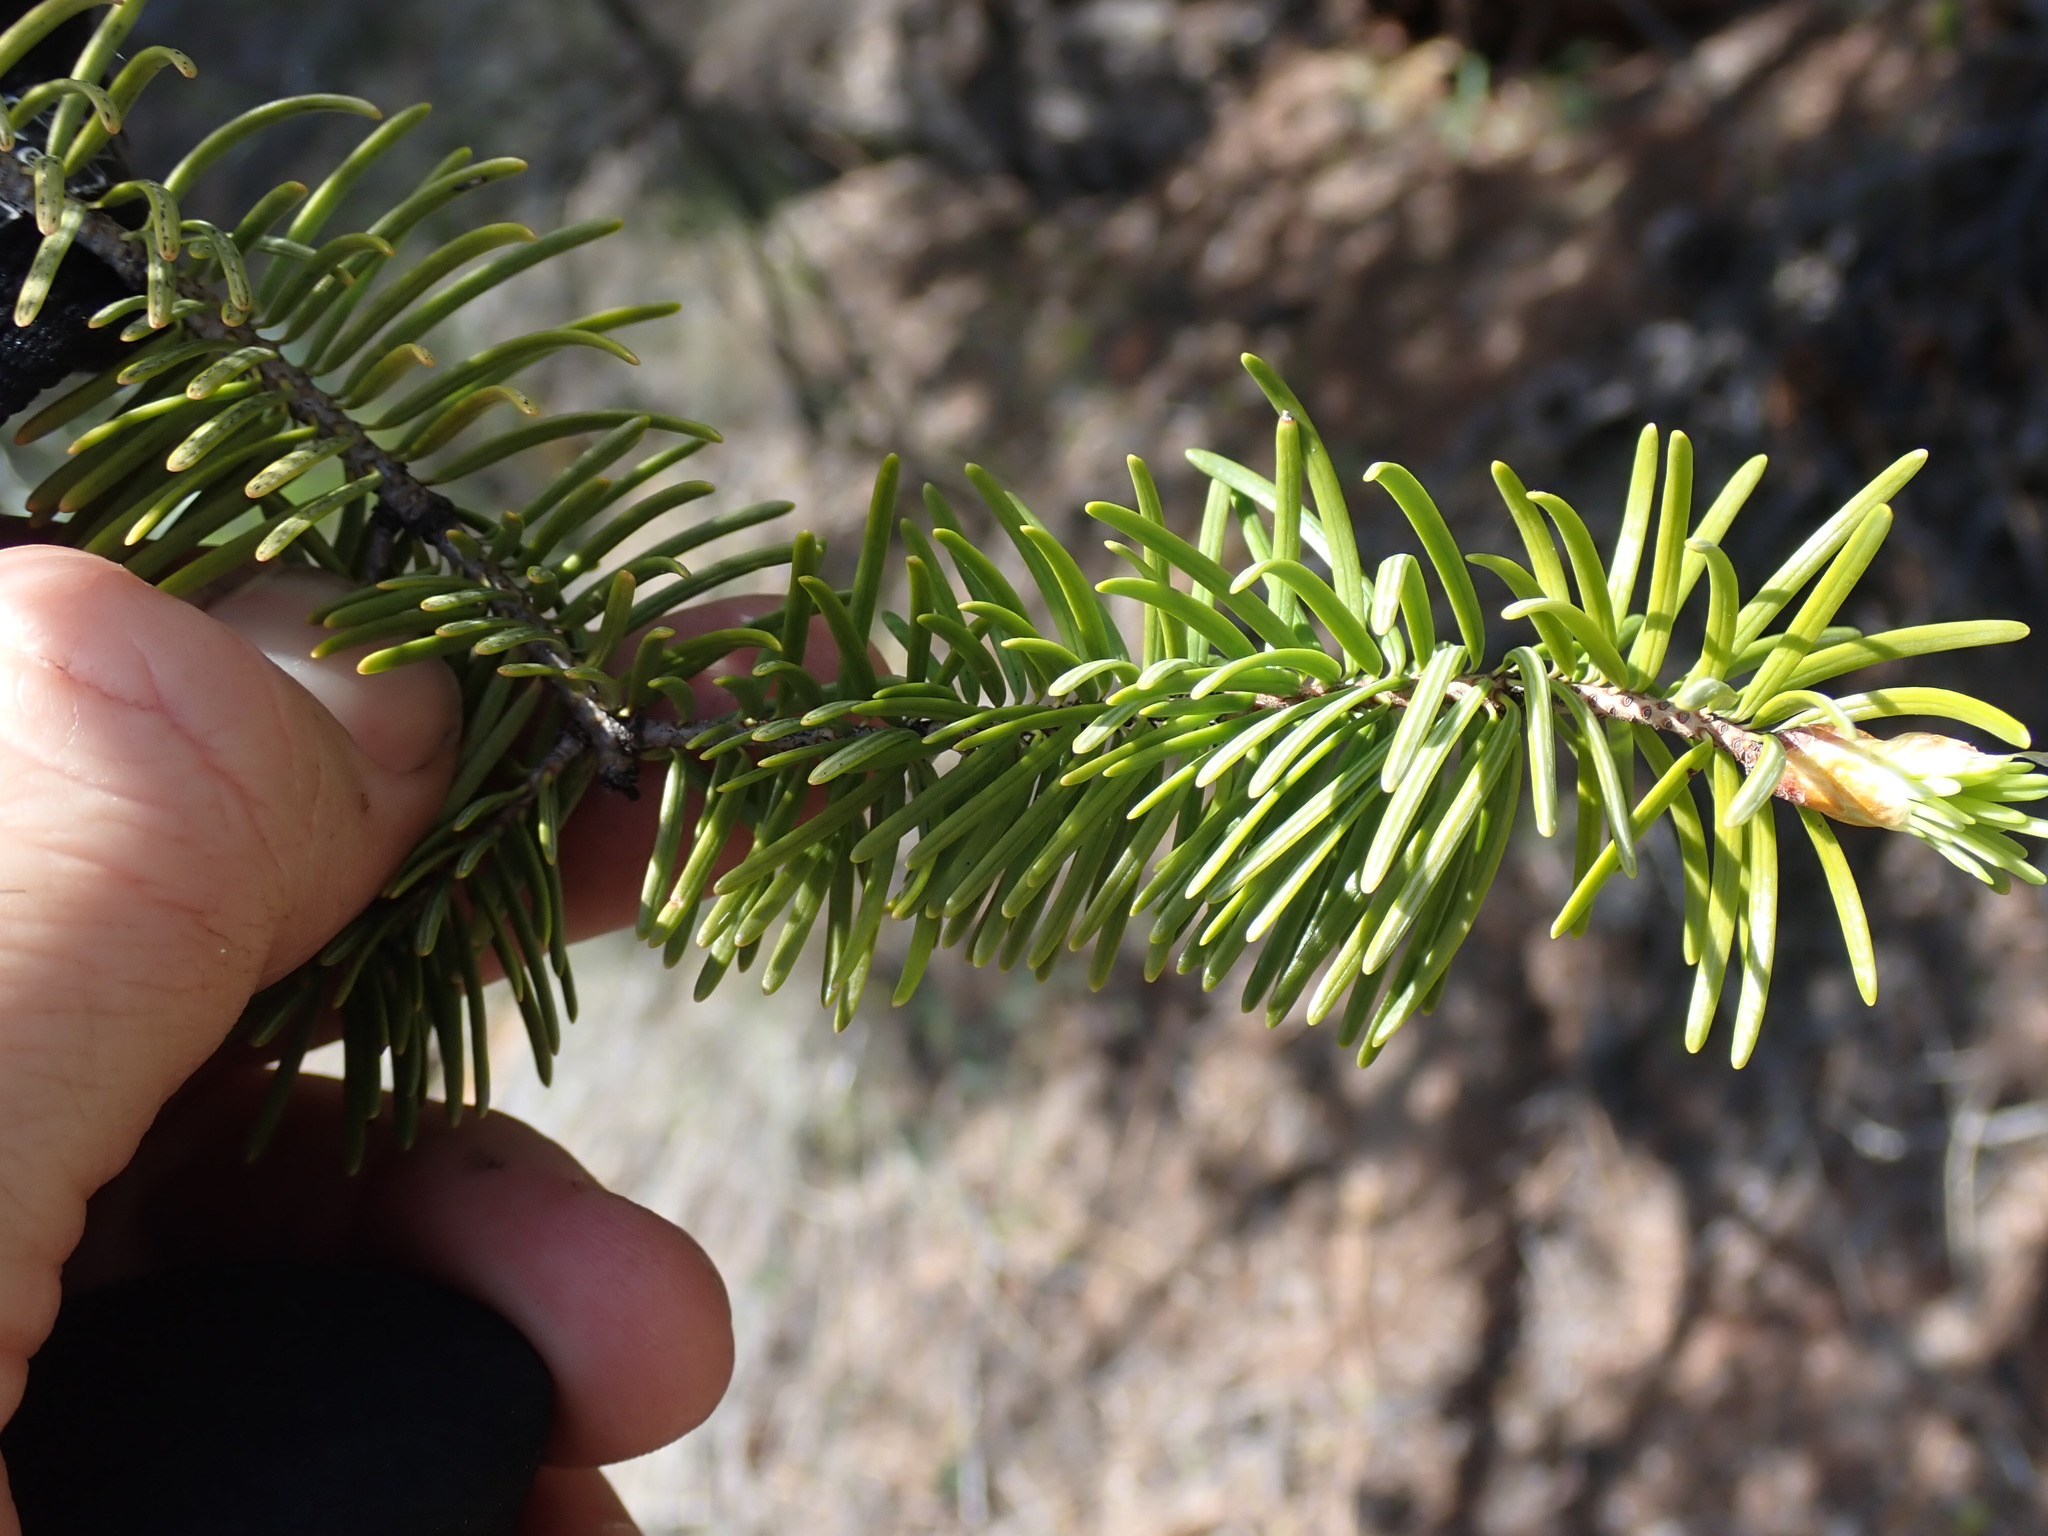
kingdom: Plantae
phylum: Tracheophyta
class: Pinopsida
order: Pinales
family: Pinaceae
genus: Pseudotsuga
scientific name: Pseudotsuga menziesii
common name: Douglas fir
